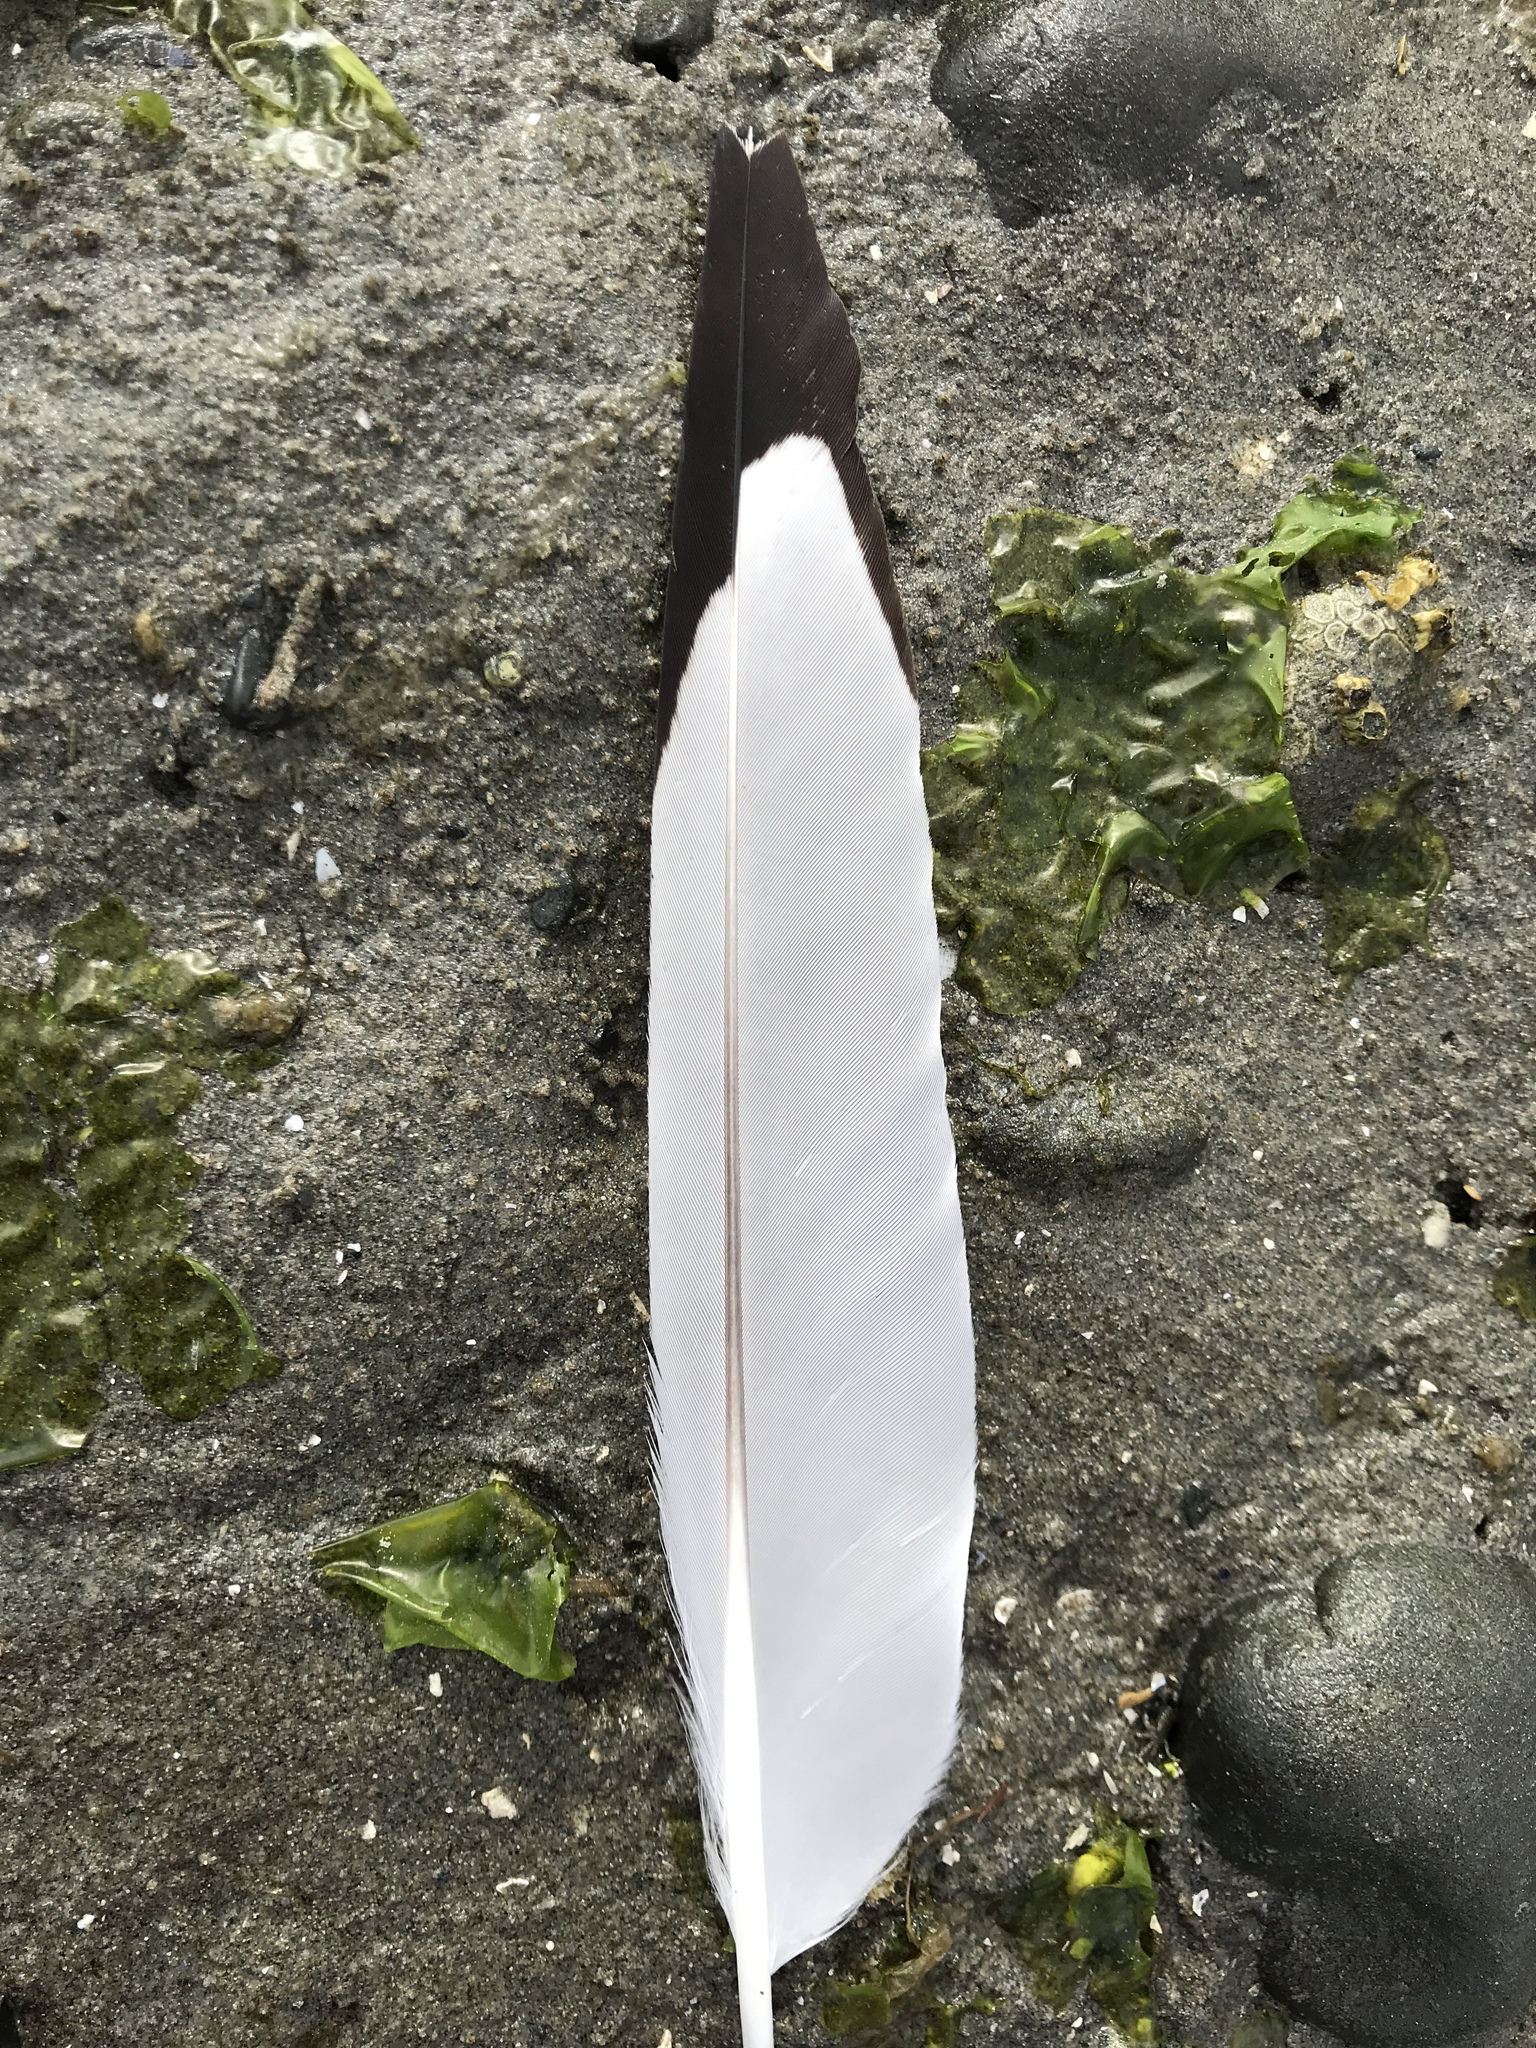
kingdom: Animalia
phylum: Chordata
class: Aves
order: Charadriiformes
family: Laridae
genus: Larus
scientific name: Larus delawarensis
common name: Ring-billed gull
